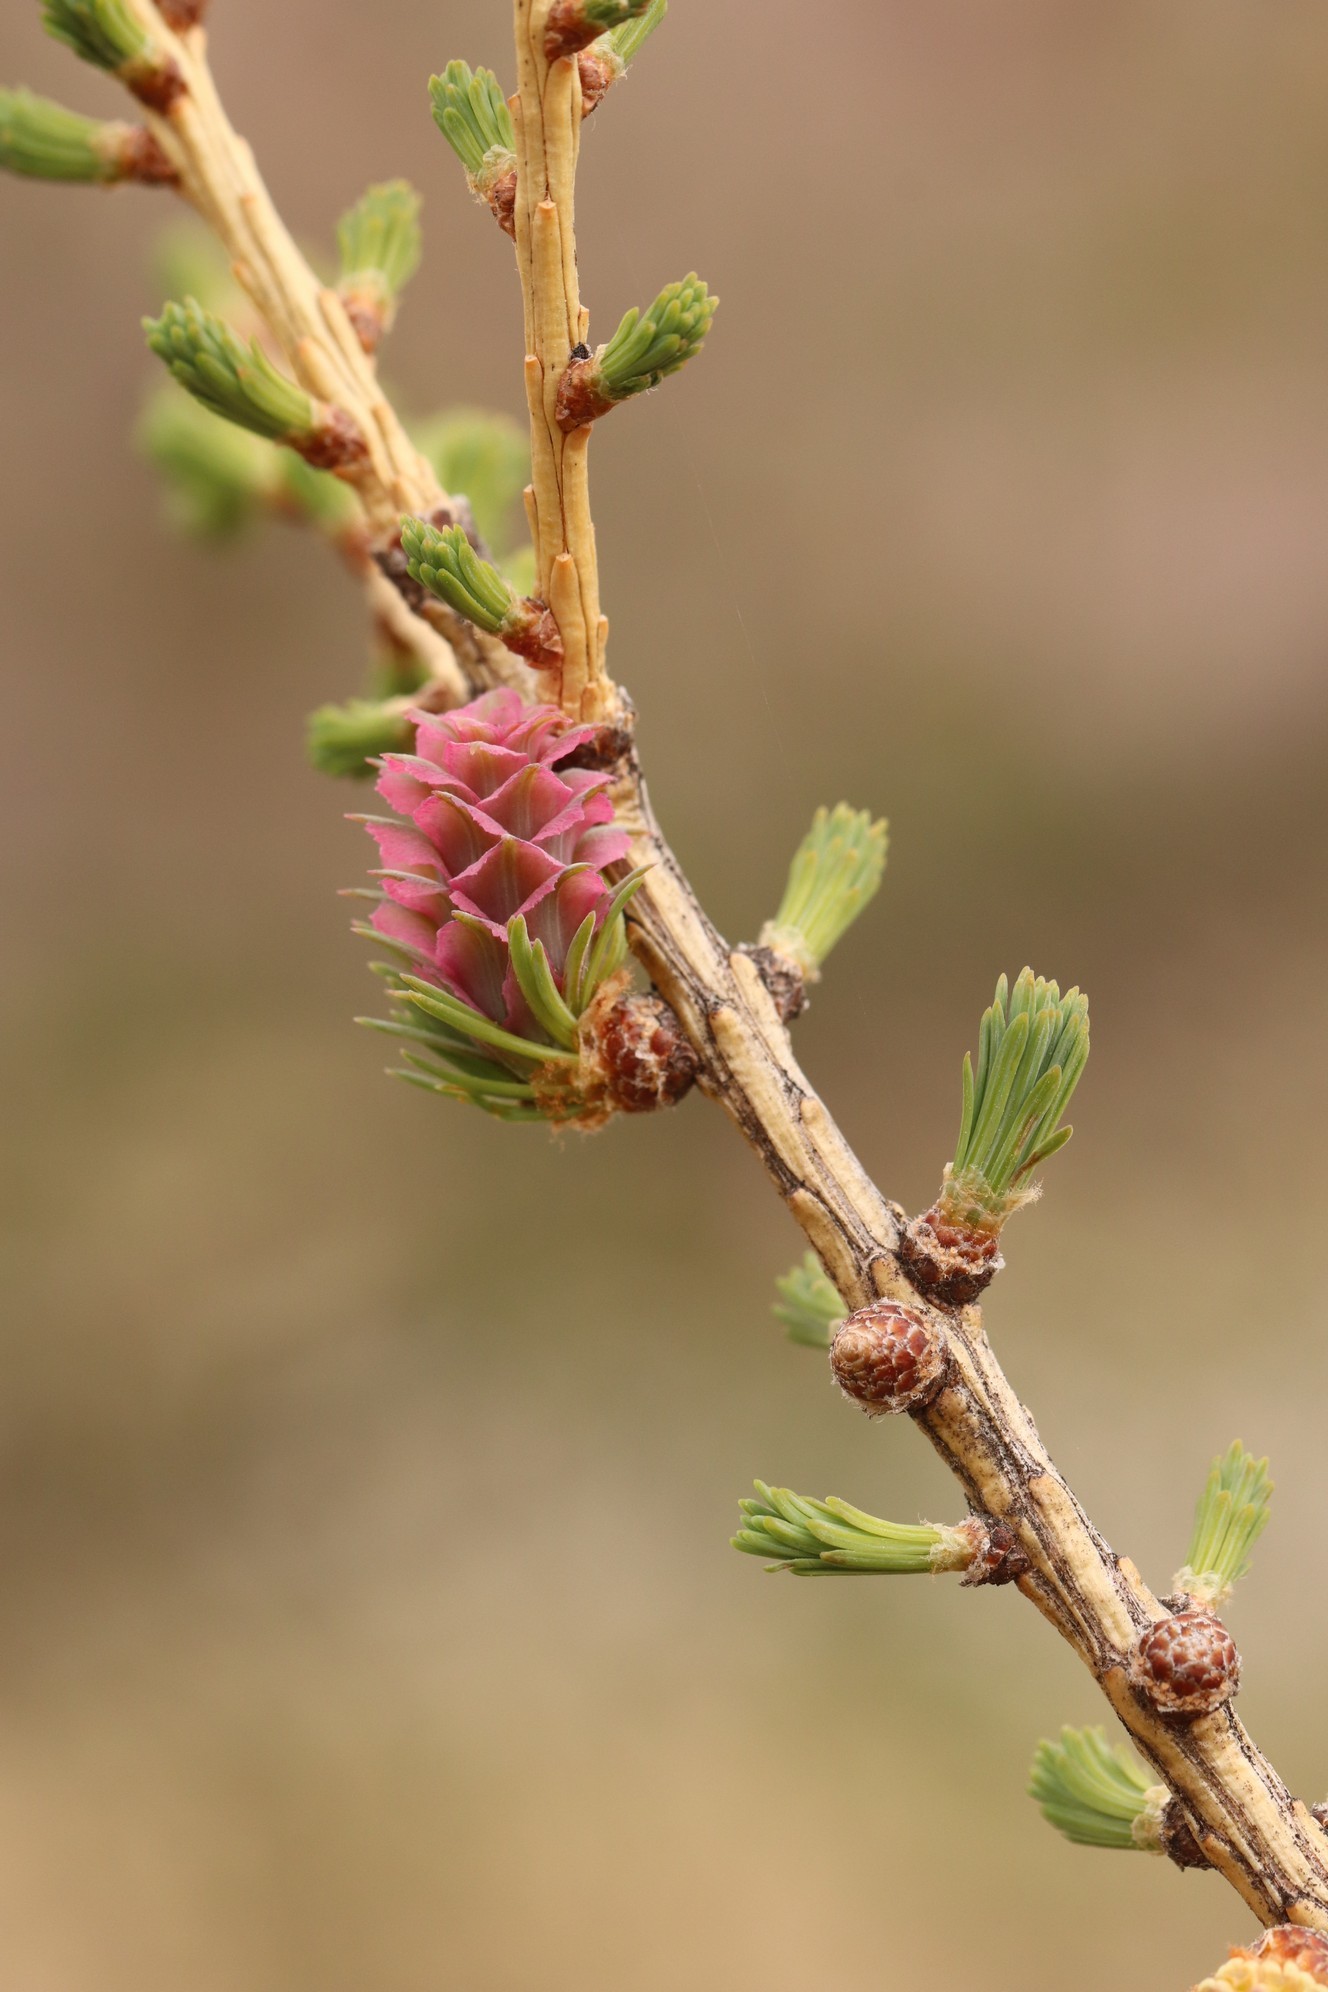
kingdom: Plantae
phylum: Tracheophyta
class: Pinopsida
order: Pinales
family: Pinaceae
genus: Larix
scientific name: Larix sibirica
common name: Siberian larch
